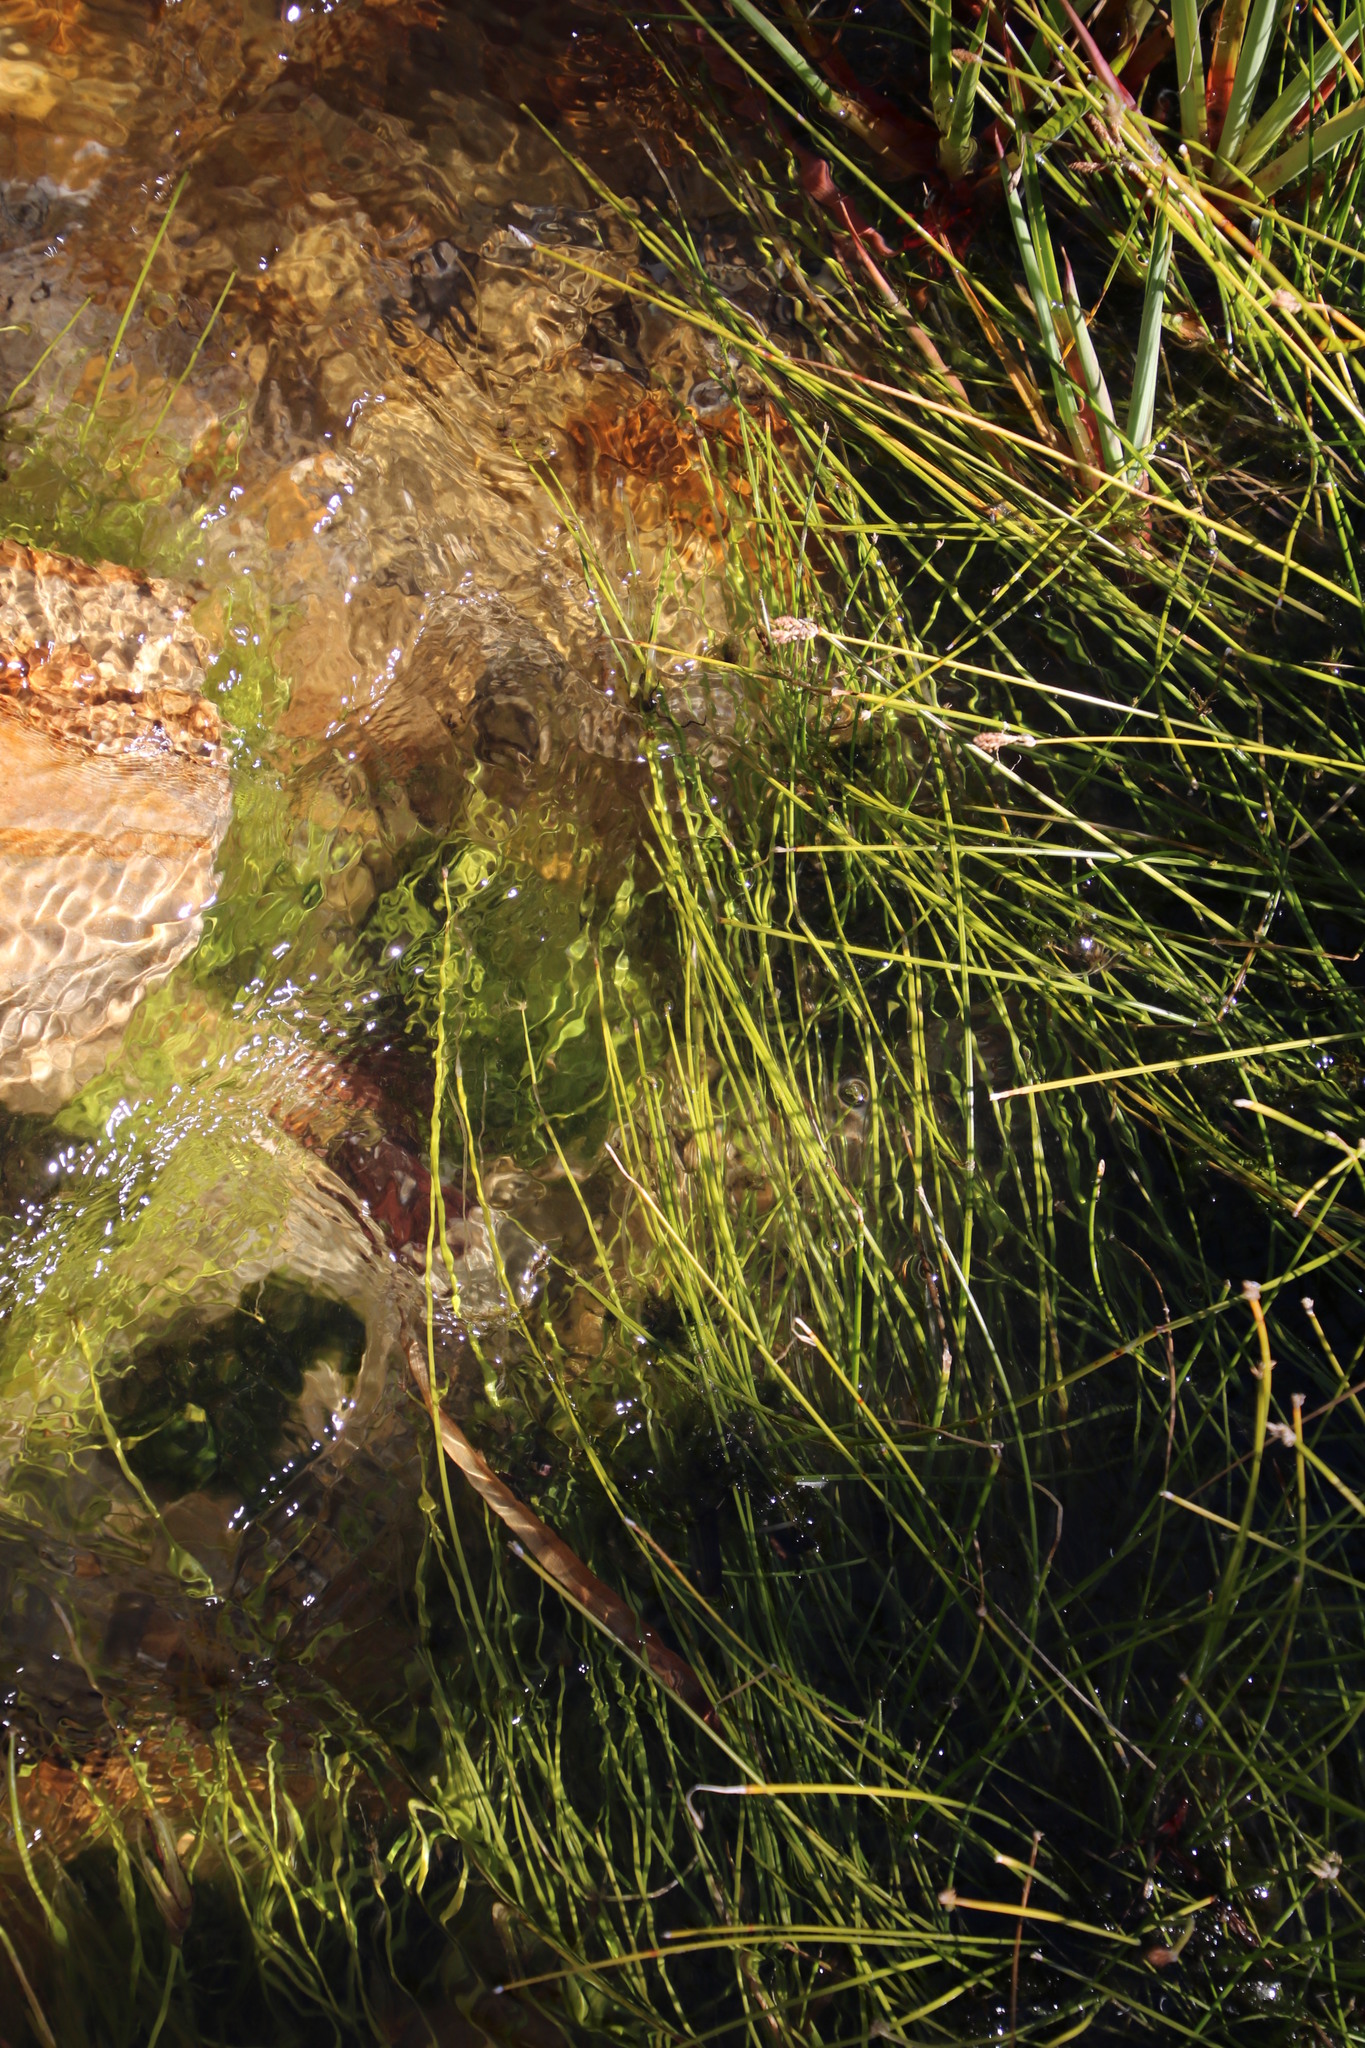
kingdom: Plantae
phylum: Tracheophyta
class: Liliopsida
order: Poales
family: Cyperaceae
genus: Isolepis
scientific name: Isolepis digitata
